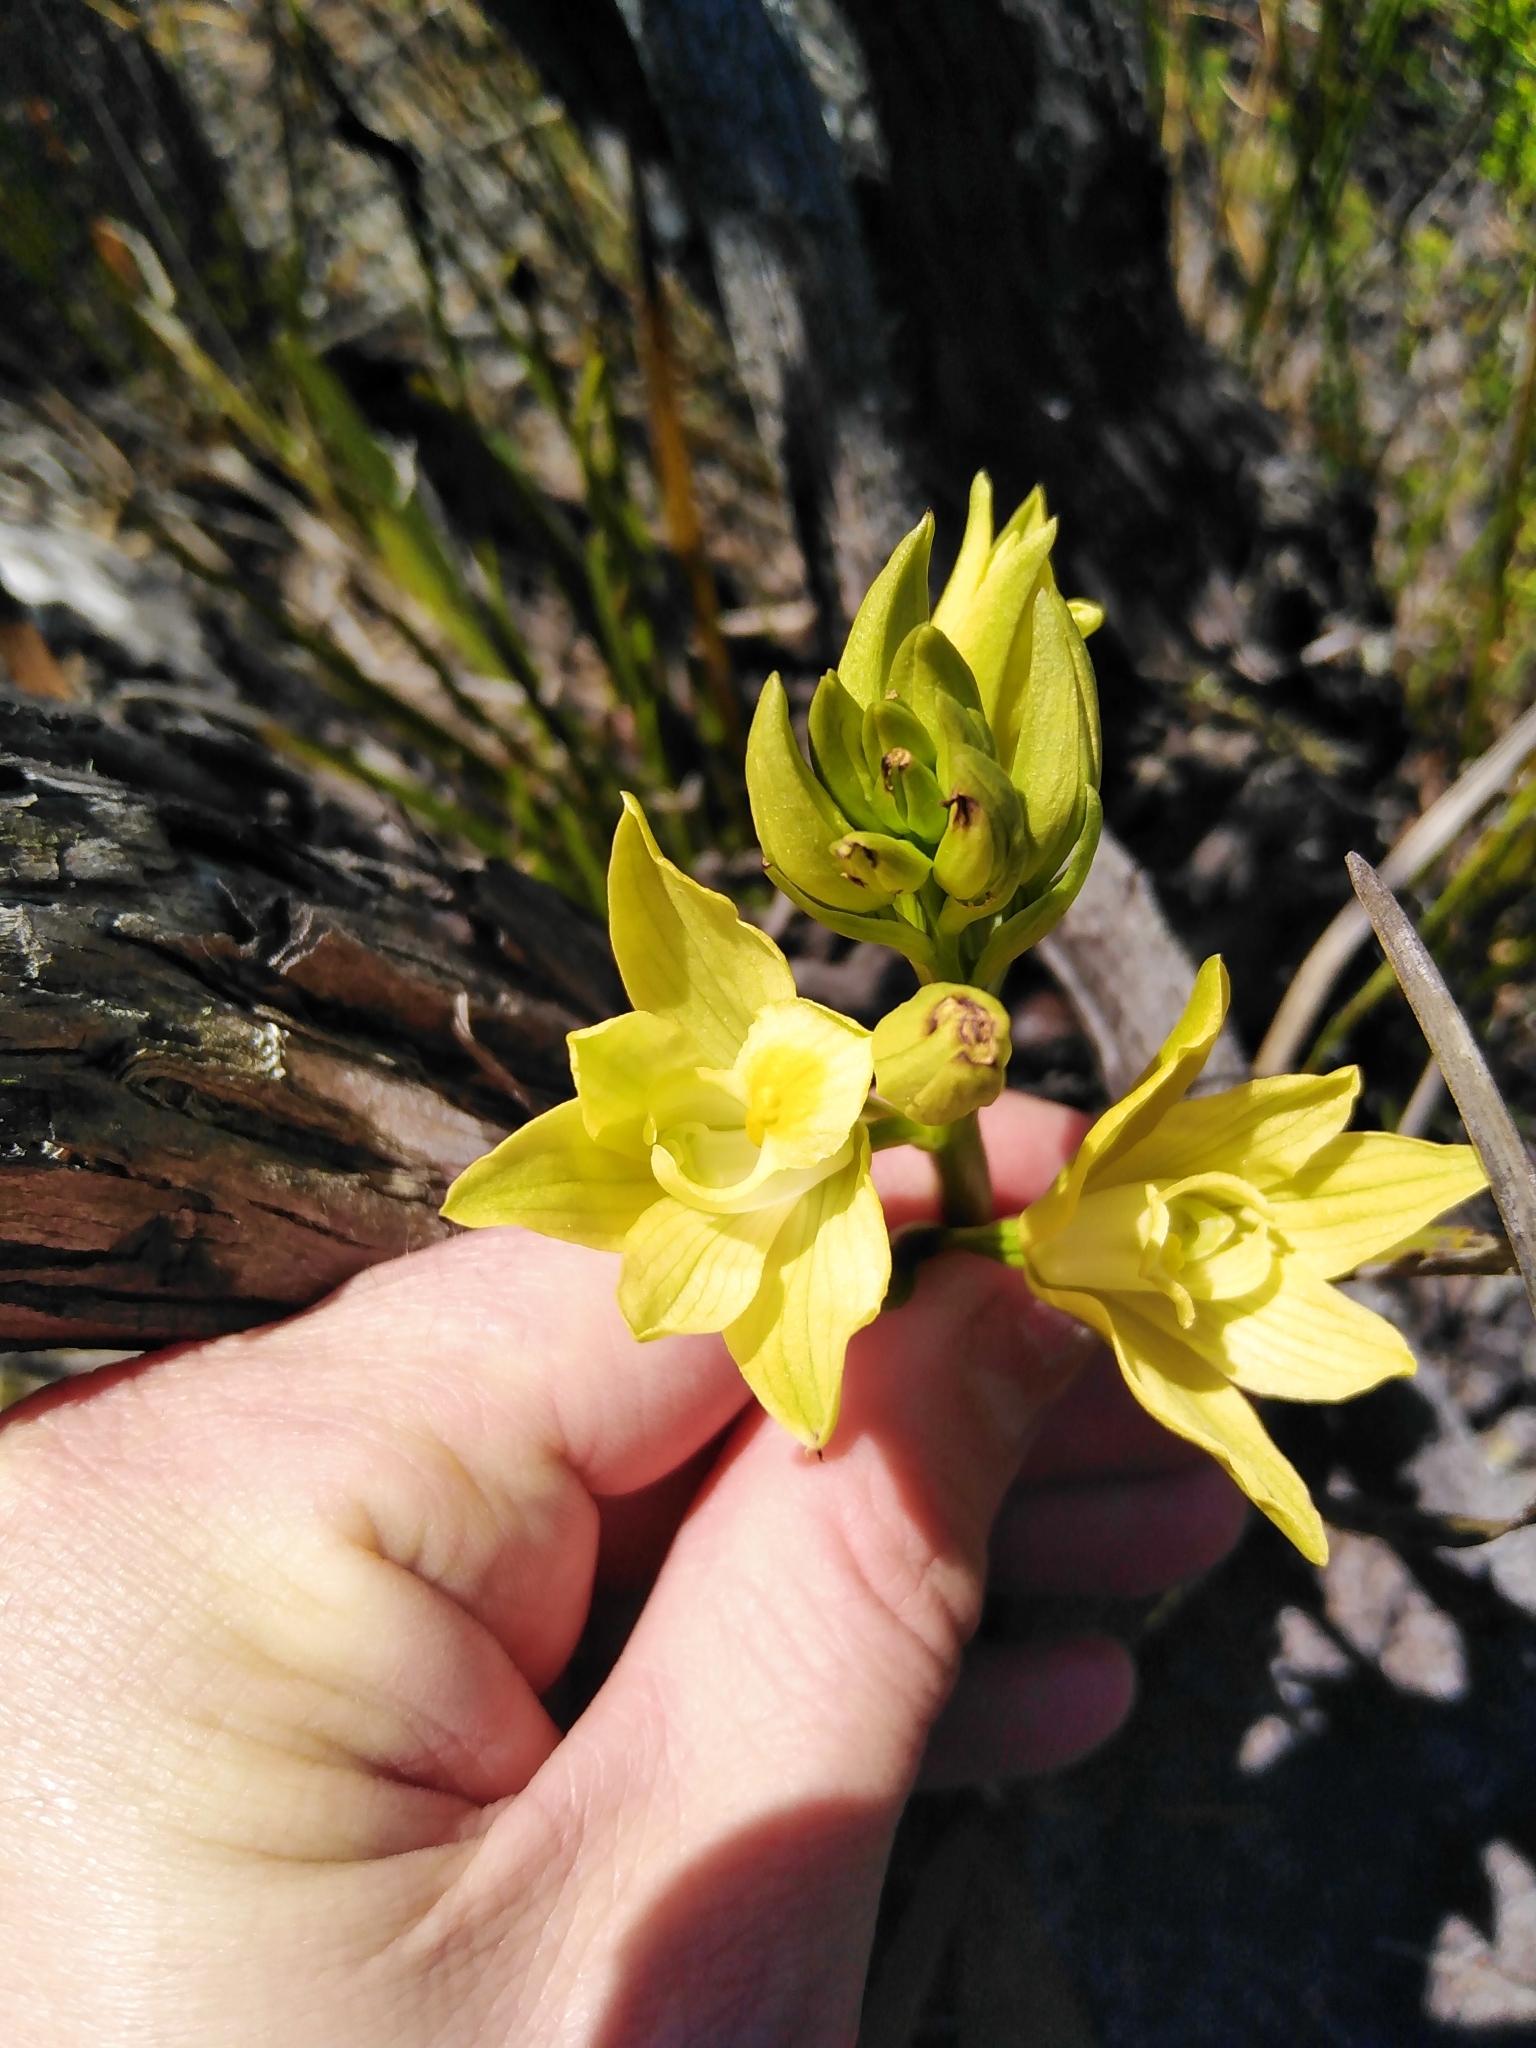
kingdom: Plantae
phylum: Tracheophyta
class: Liliopsida
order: Asparagales
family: Orchidaceae
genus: Eulophia
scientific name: Eulophia tabularis
